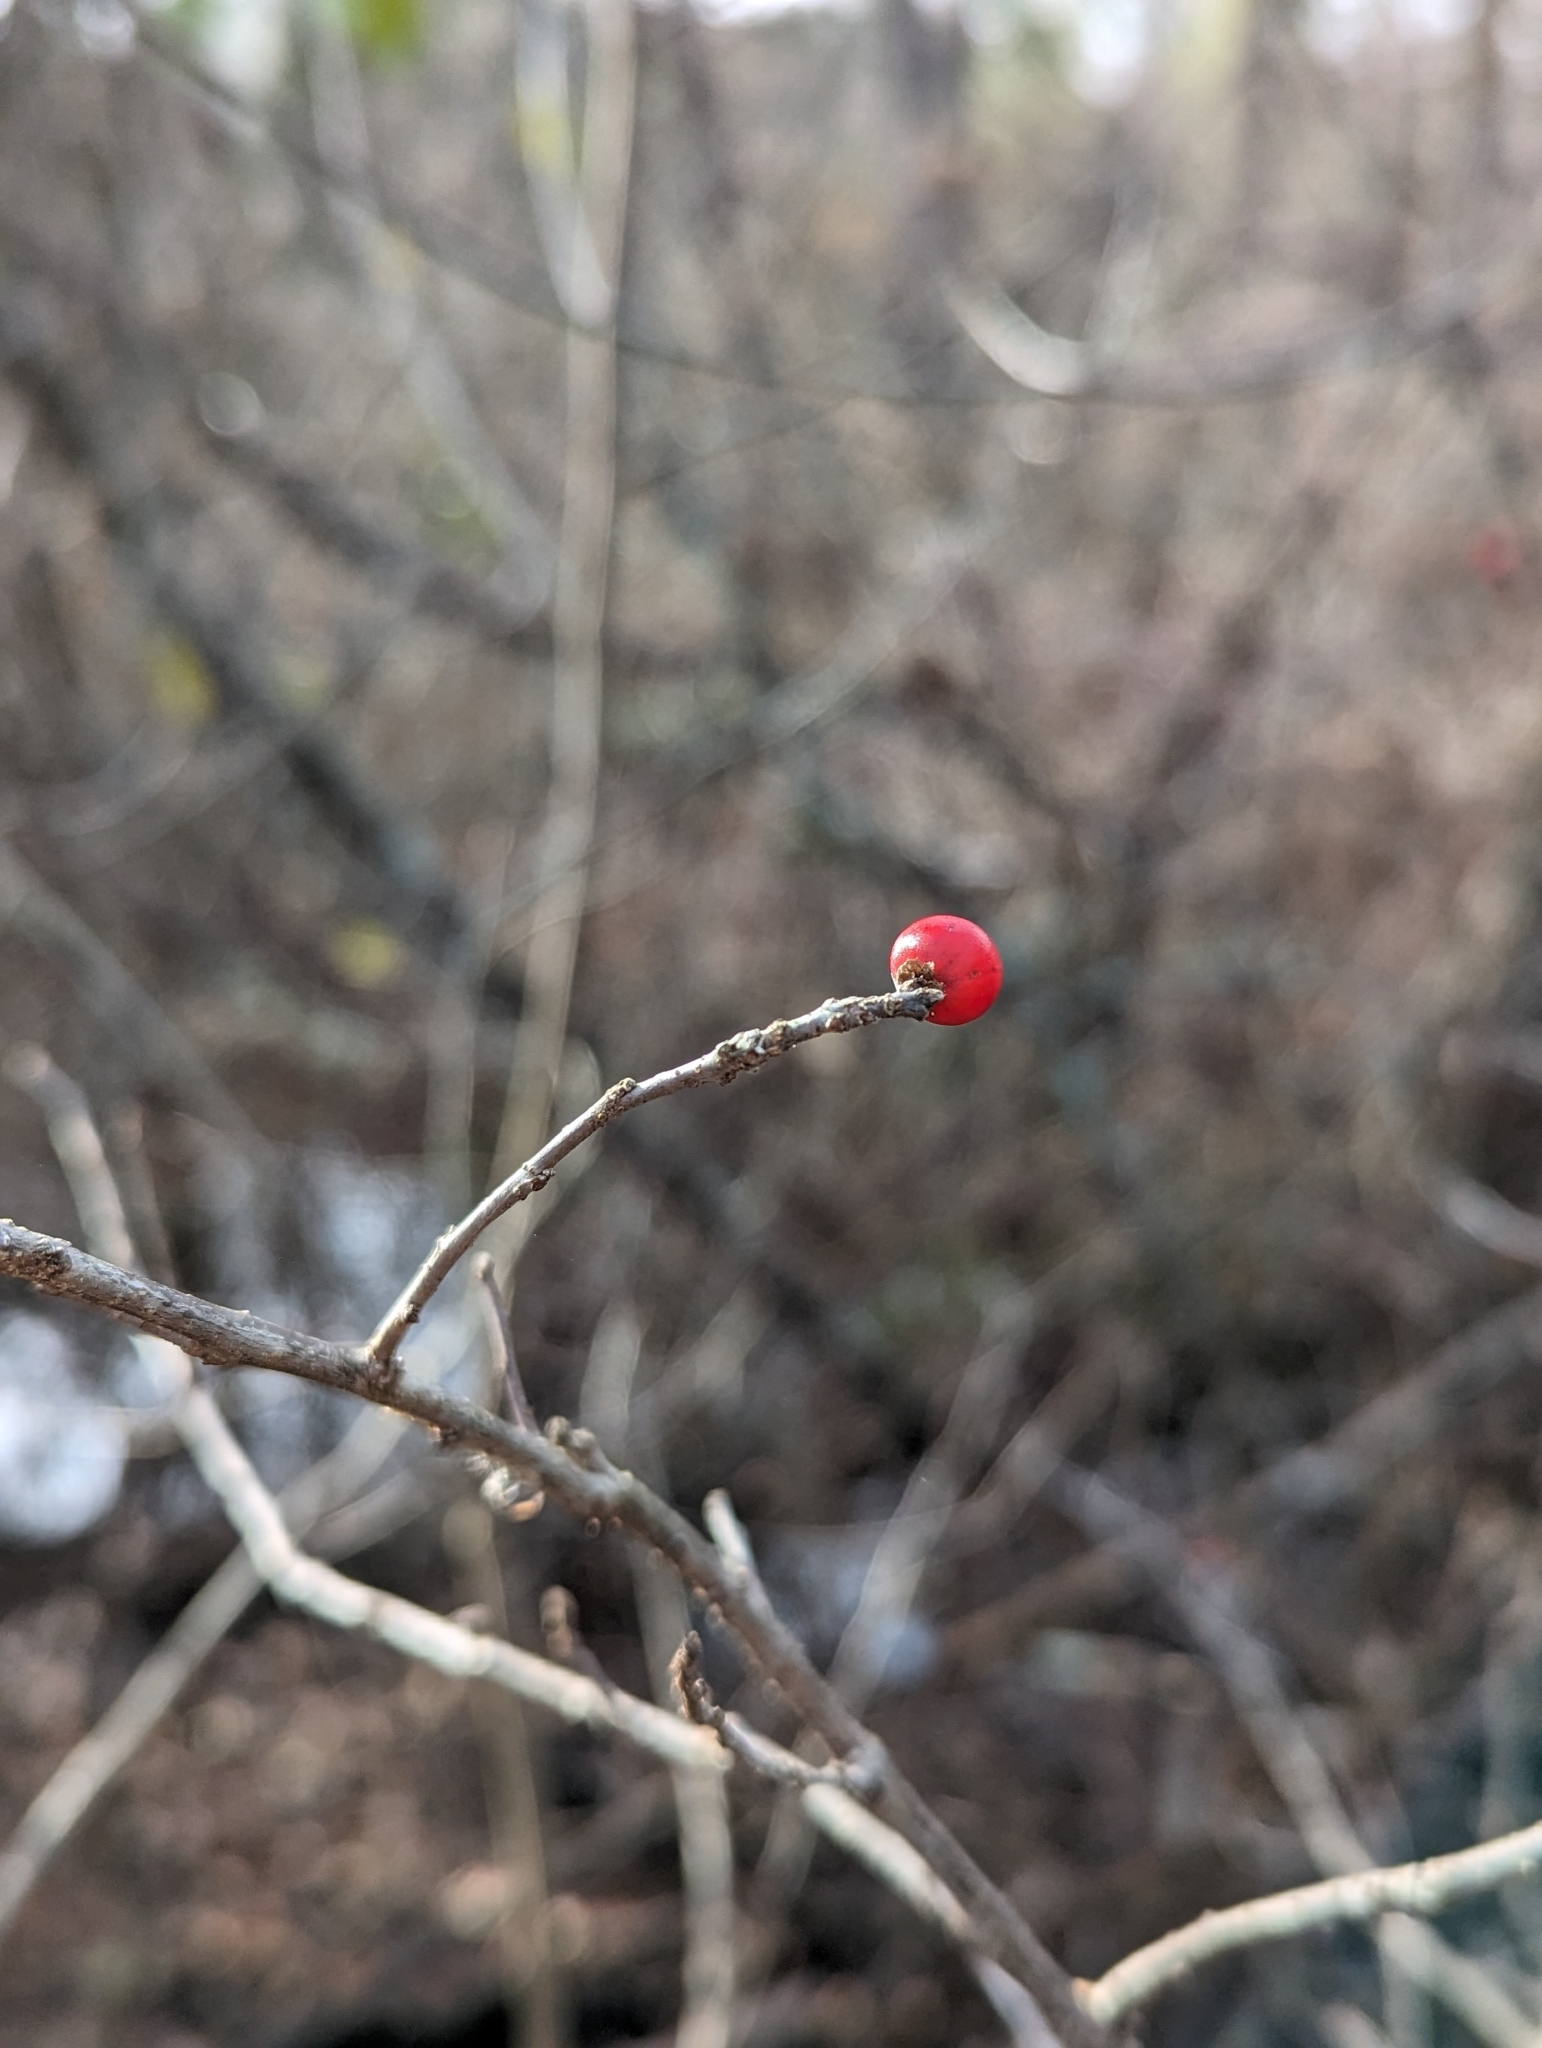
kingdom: Plantae
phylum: Tracheophyta
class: Magnoliopsida
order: Aquifoliales
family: Aquifoliaceae
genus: Ilex
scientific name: Ilex verticillata
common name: Virginia winterberry
